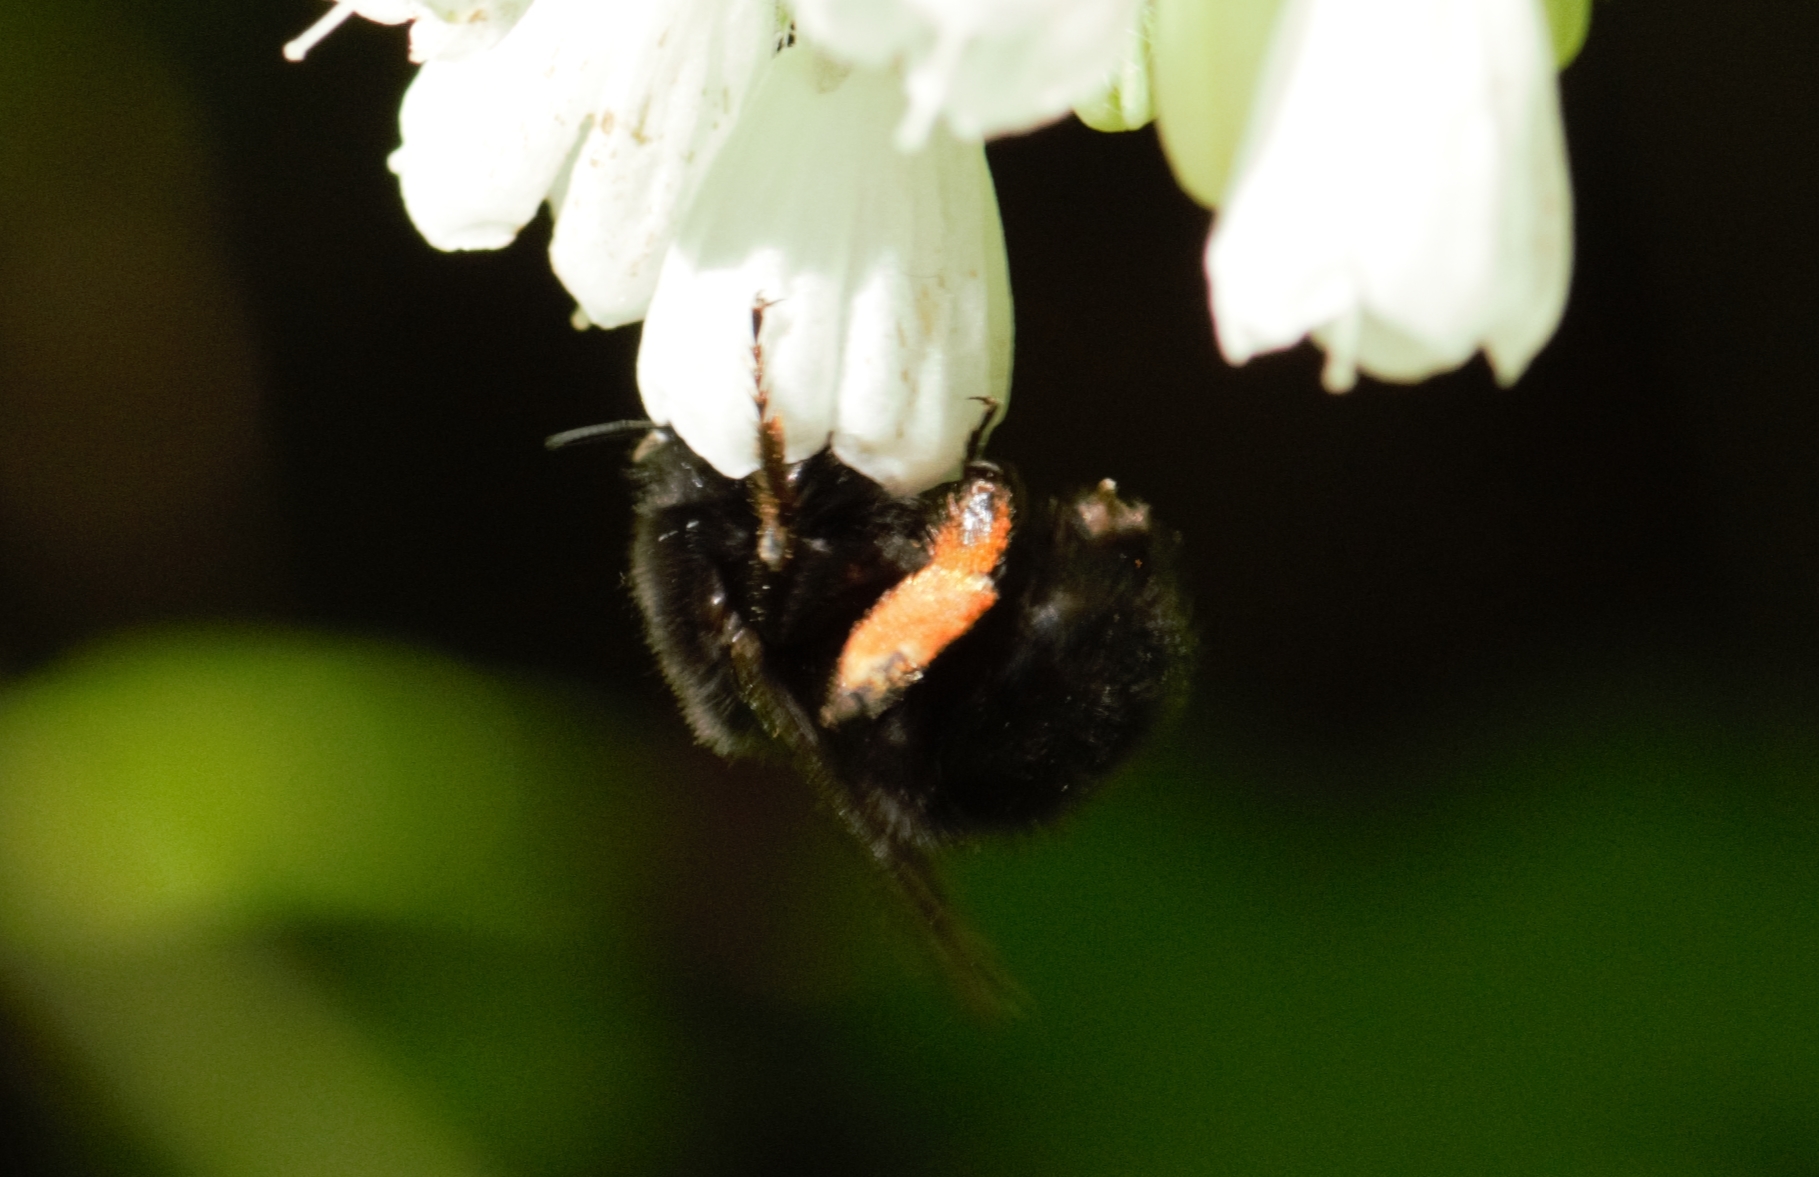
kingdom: Animalia
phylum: Arthropoda
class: Insecta
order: Hymenoptera
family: Apidae
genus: Anthophora
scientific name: Anthophora plumipes
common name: Hairy-footed flower bee
